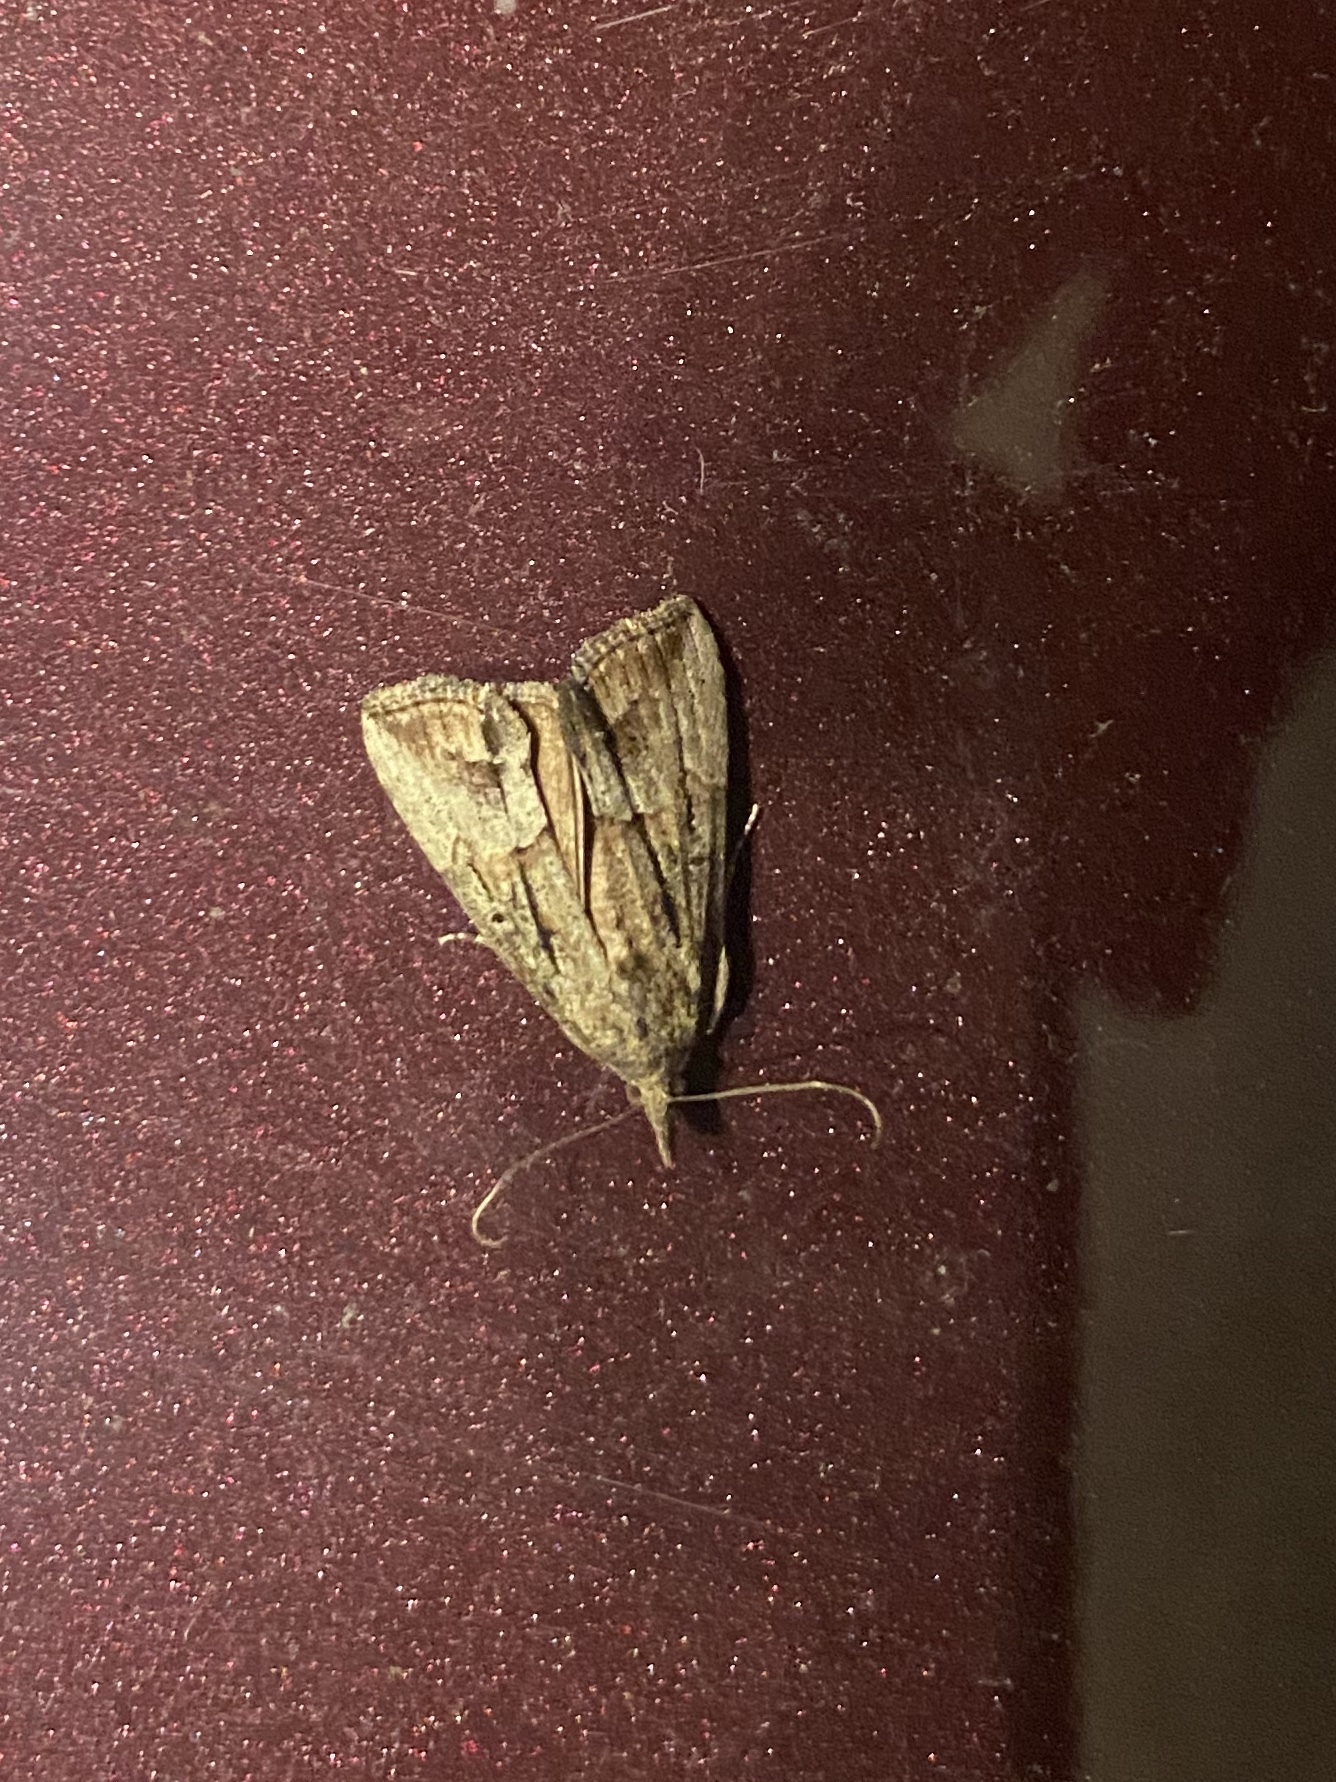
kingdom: Animalia
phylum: Arthropoda
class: Insecta
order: Lepidoptera
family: Erebidae
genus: Hypena
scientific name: Hypena scabra
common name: Green cloverworm
